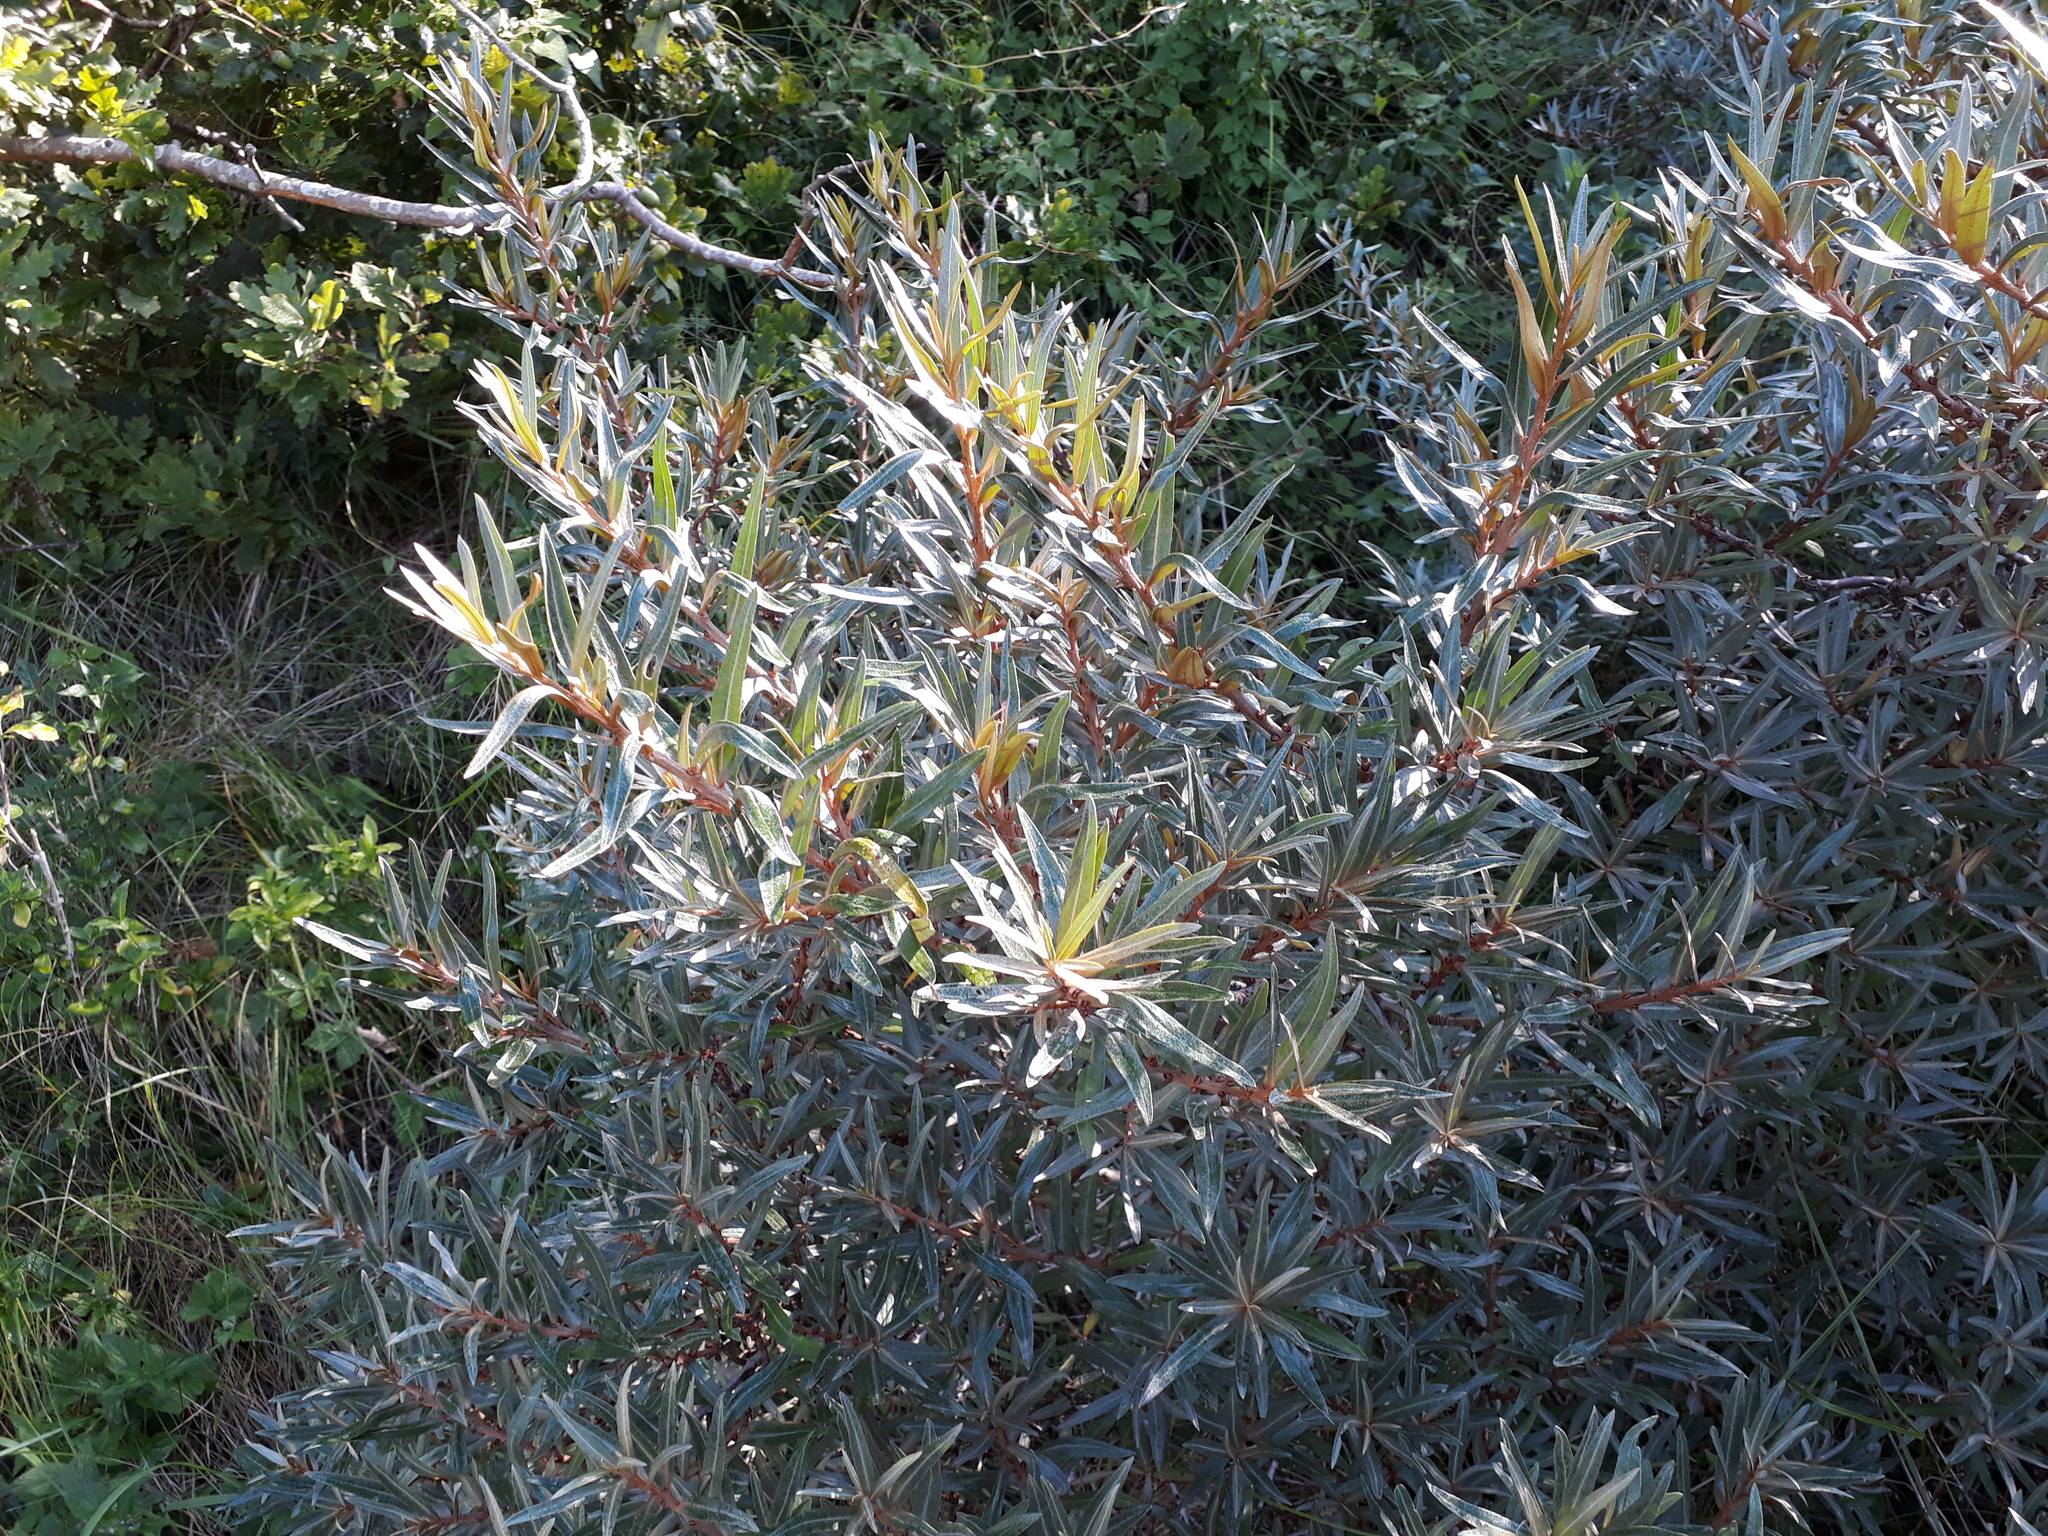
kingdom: Plantae
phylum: Tracheophyta
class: Magnoliopsida
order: Rosales
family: Elaeagnaceae
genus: Hippophae
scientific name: Hippophae rhamnoides
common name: Sea-buckthorn
